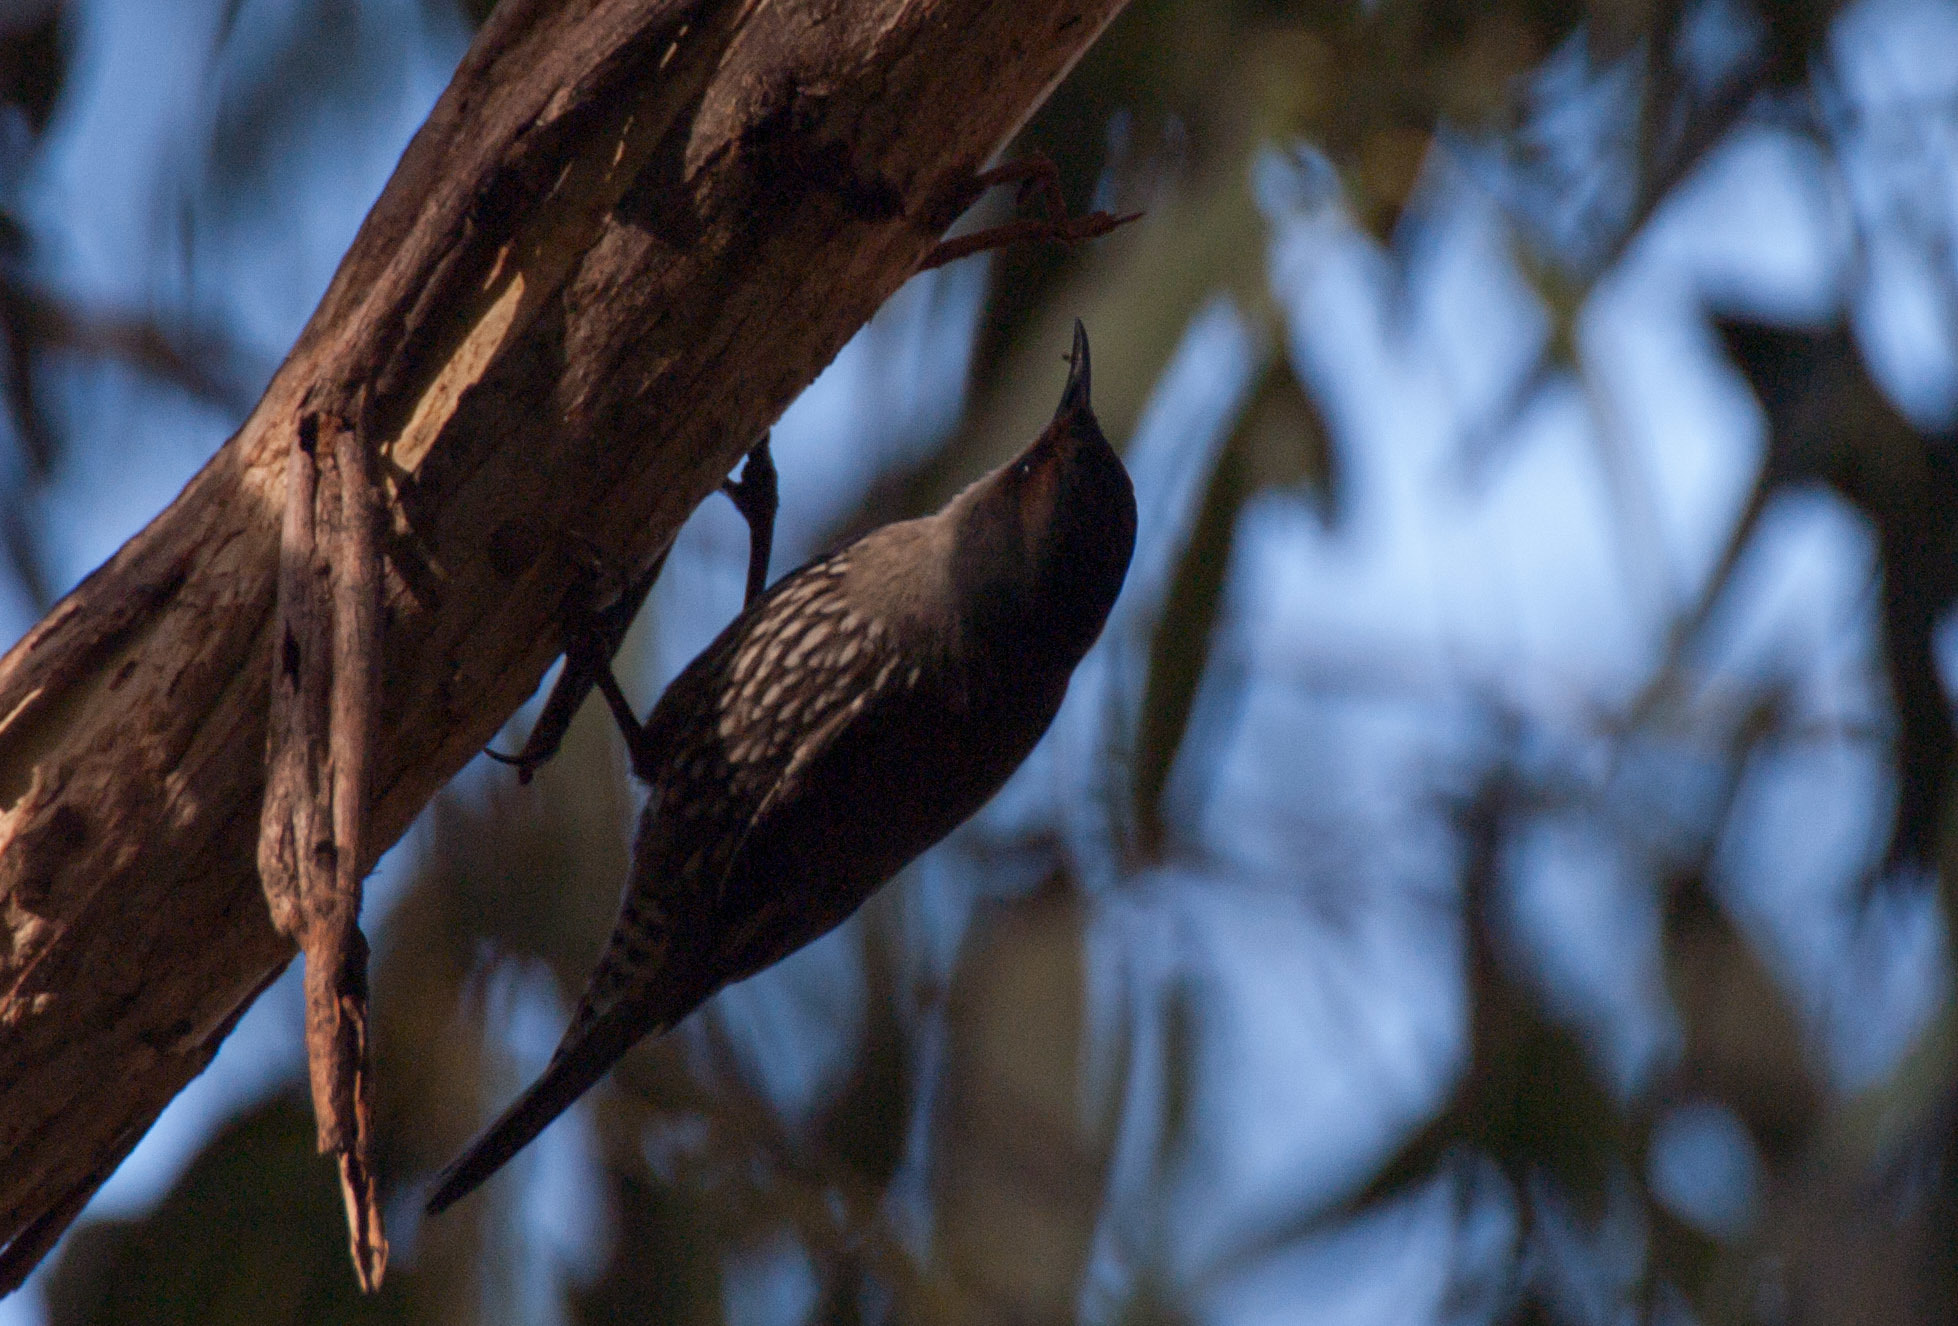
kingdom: Animalia
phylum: Chordata
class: Aves
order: Passeriformes
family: Climacteridae
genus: Climacteris
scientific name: Climacteris erythrops
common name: Red-browed treecreeper
